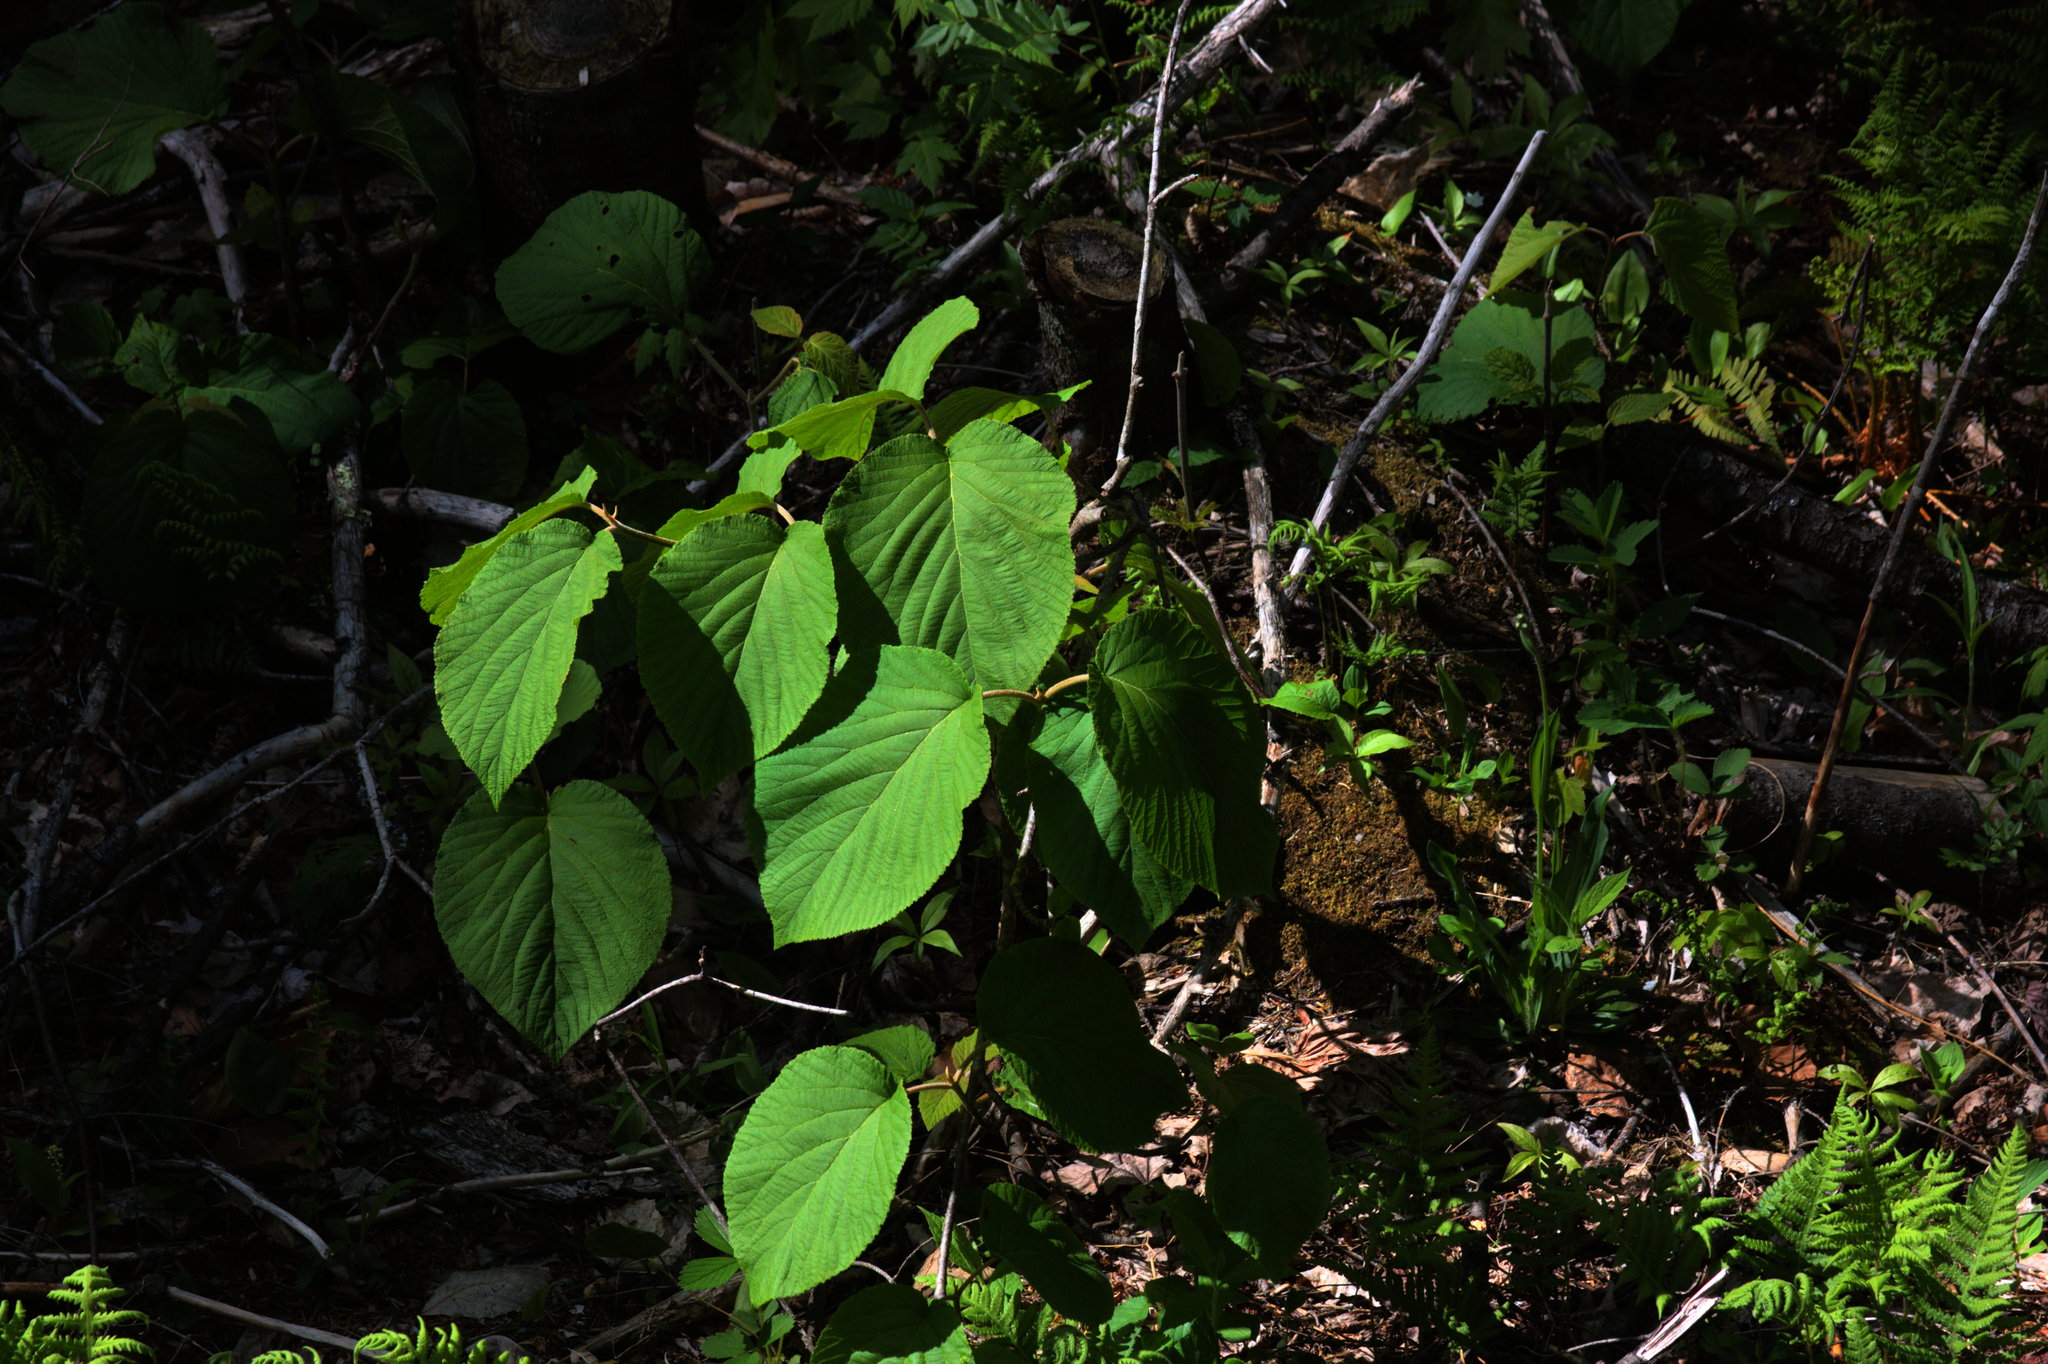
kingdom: Plantae
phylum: Tracheophyta
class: Magnoliopsida
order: Dipsacales
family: Viburnaceae
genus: Viburnum
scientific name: Viburnum lantanoides
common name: Hobblebush
